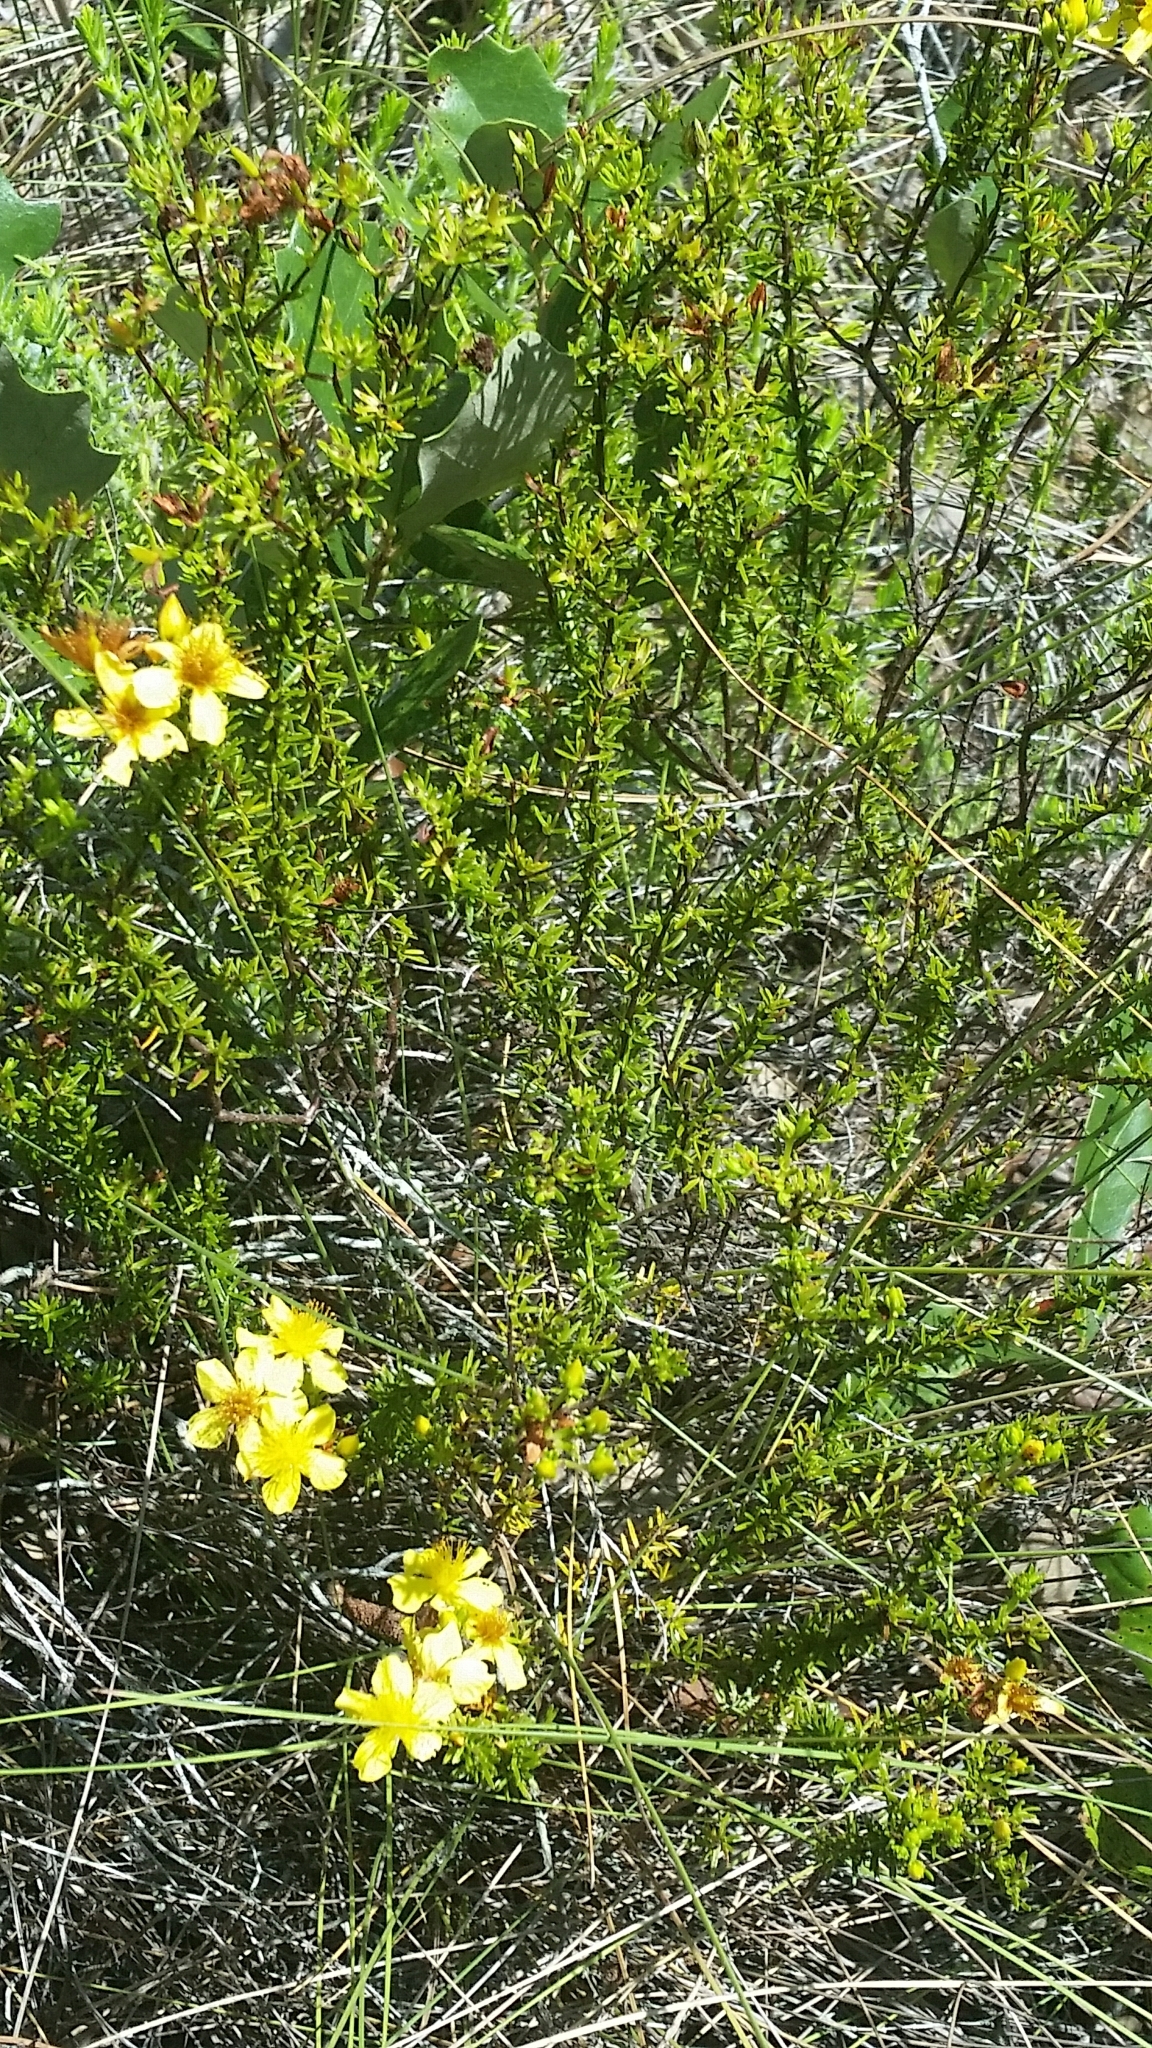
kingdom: Plantae
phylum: Tracheophyta
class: Magnoliopsida
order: Malpighiales
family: Hypericaceae
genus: Hypericum
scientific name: Hypericum tenuifolium
